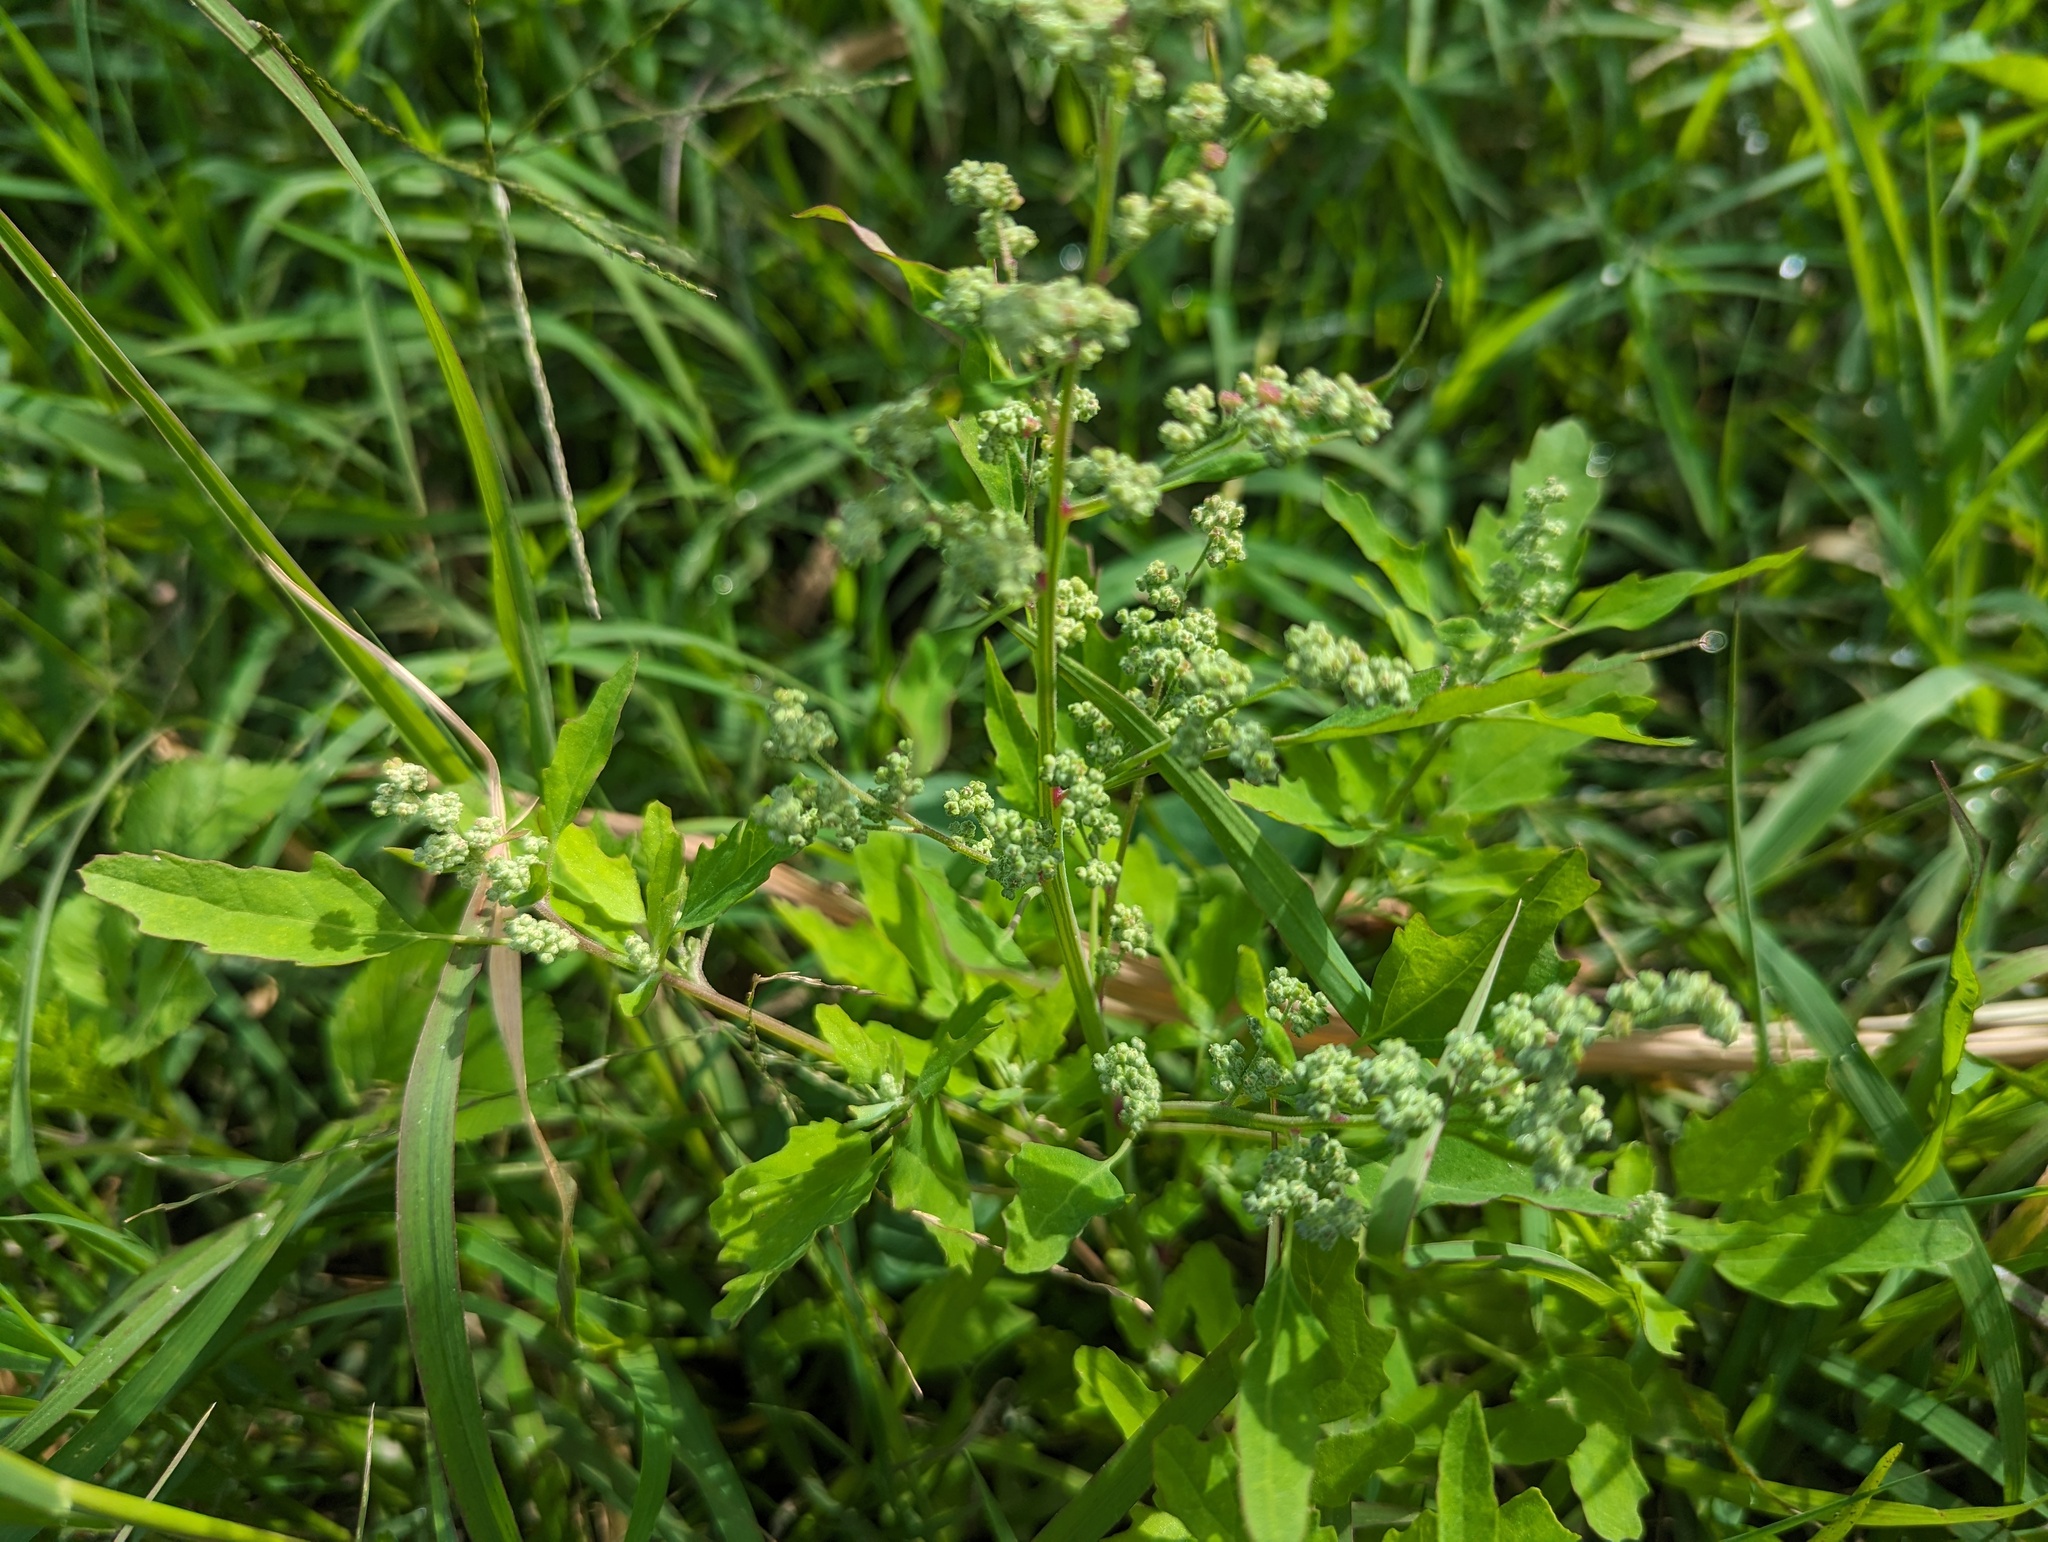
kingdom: Plantae
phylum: Tracheophyta
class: Magnoliopsida
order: Caryophyllales
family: Amaranthaceae
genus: Chenopodium
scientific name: Chenopodium ficifolium
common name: Fig-leaved goosefoot
